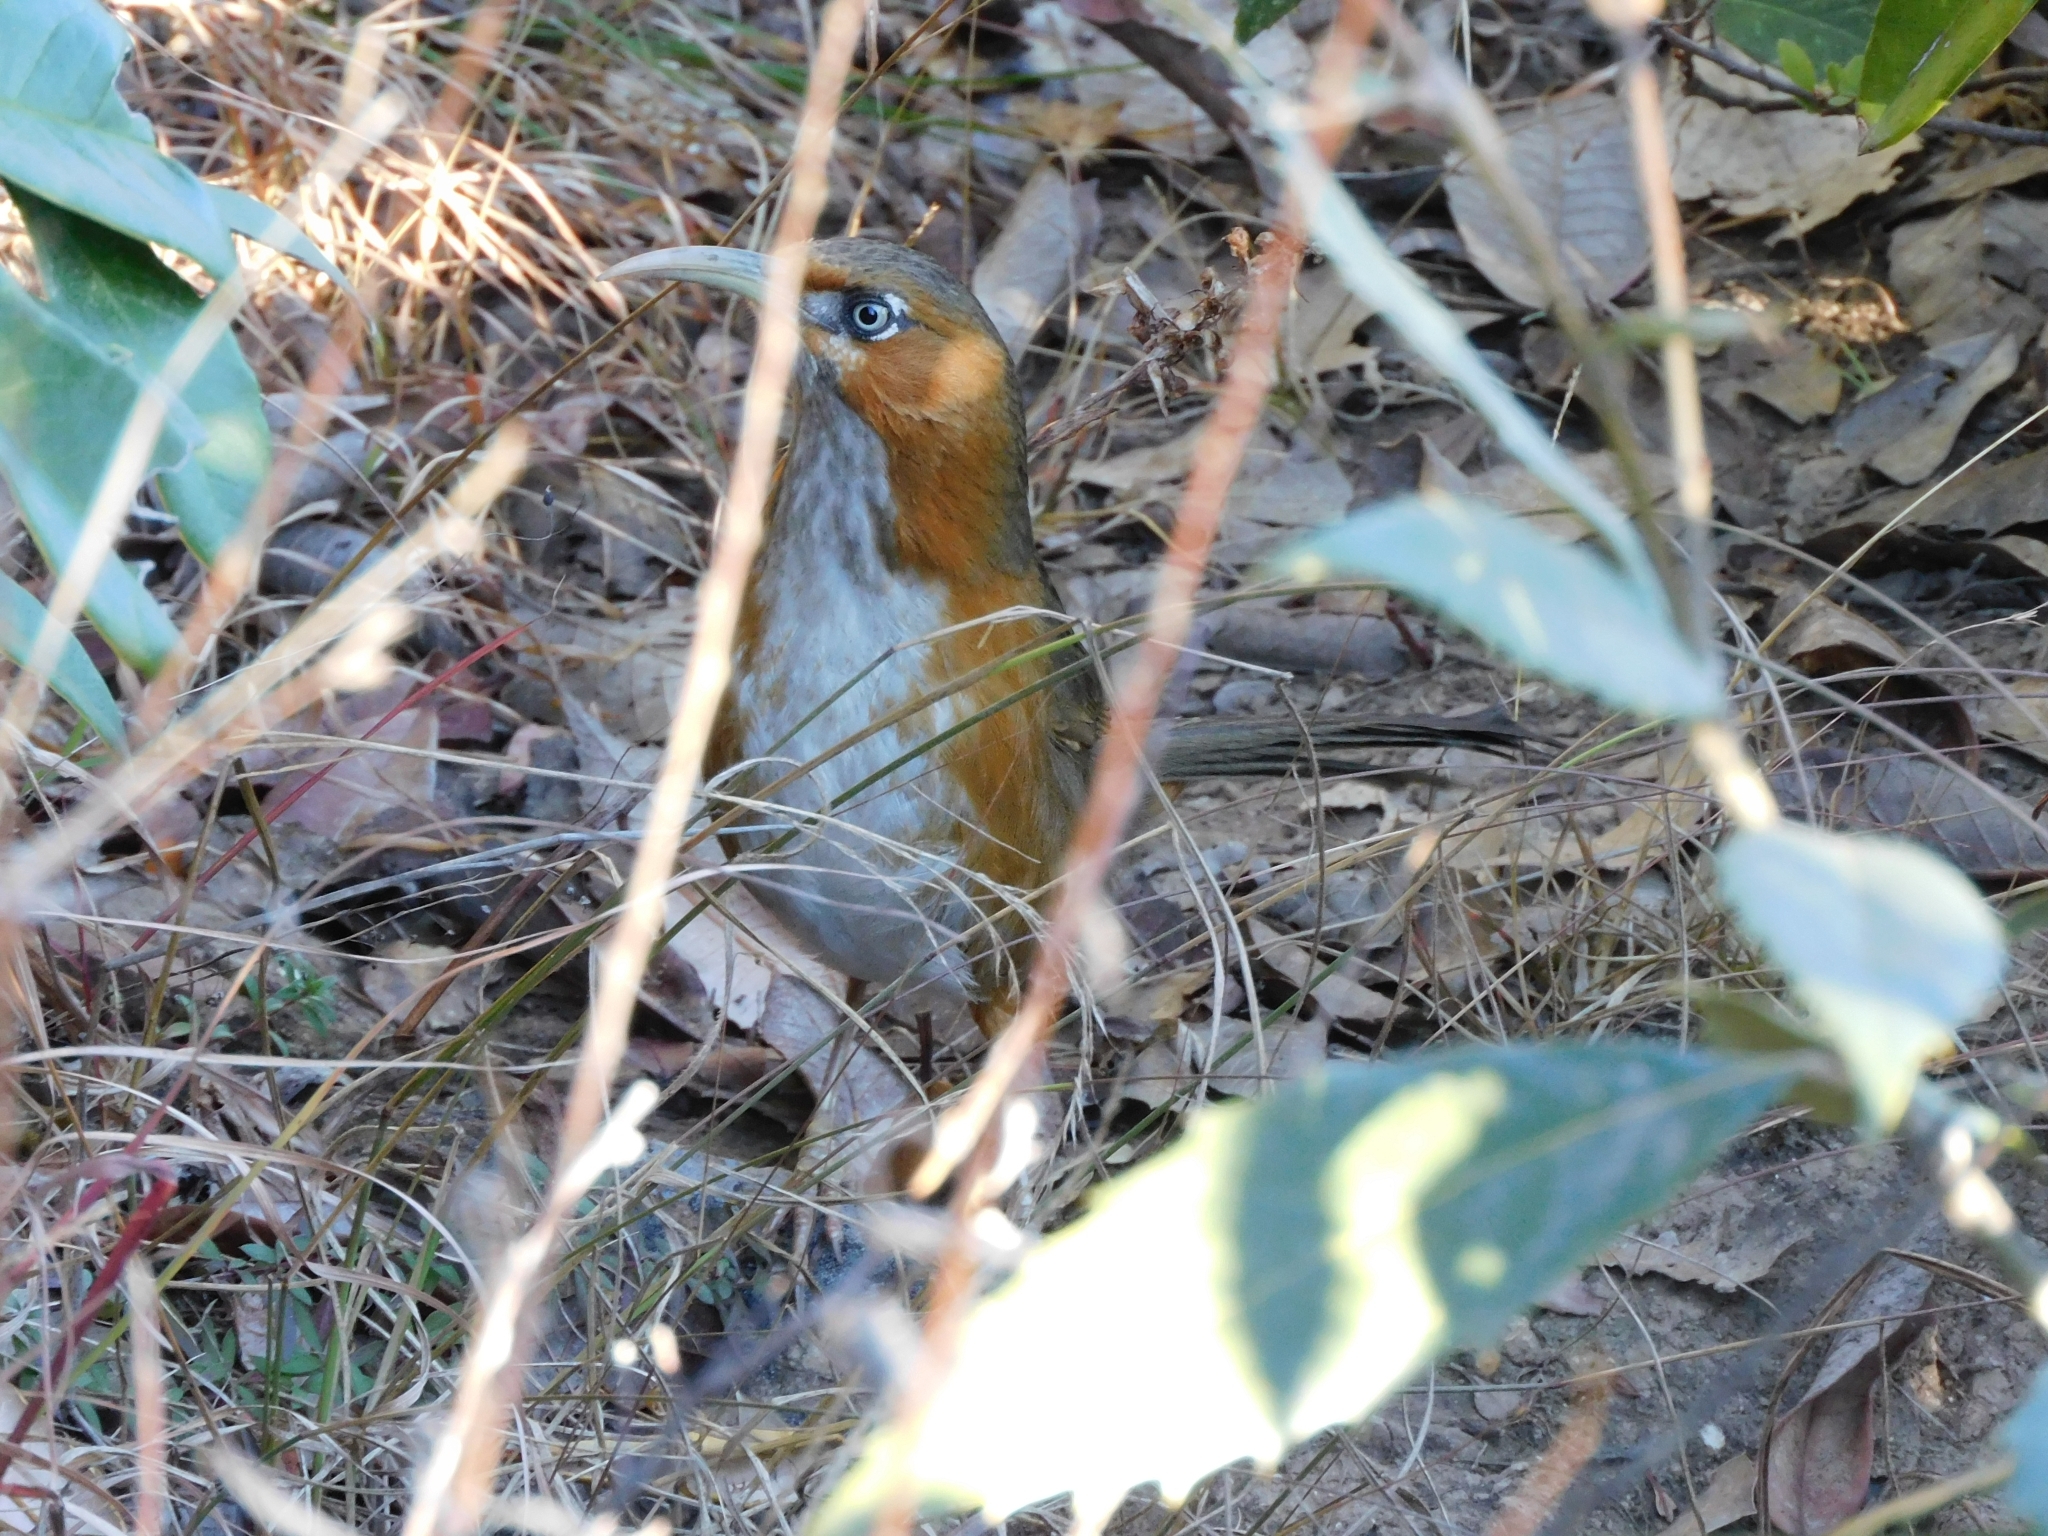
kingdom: Animalia
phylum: Chordata
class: Aves
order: Passeriformes
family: Timaliidae
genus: Pomatorhinus
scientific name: Pomatorhinus erythrogenys
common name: Rusty-cheeked scimitar babbler
